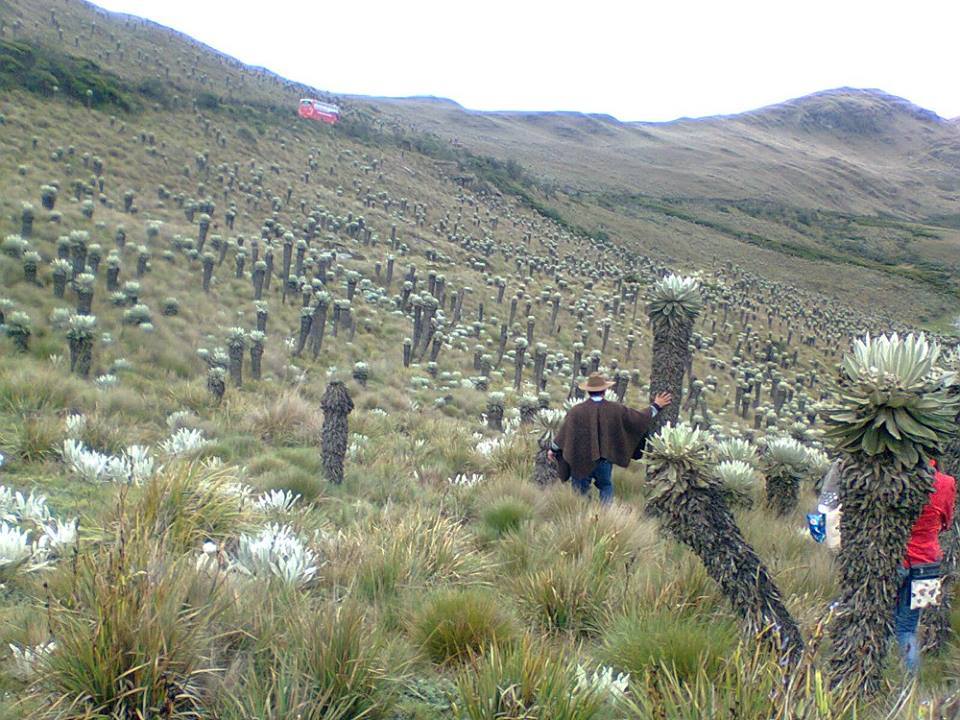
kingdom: Plantae
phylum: Tracheophyta
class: Magnoliopsida
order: Asterales
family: Asteraceae
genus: Culcitium
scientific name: Culcitium canescens
